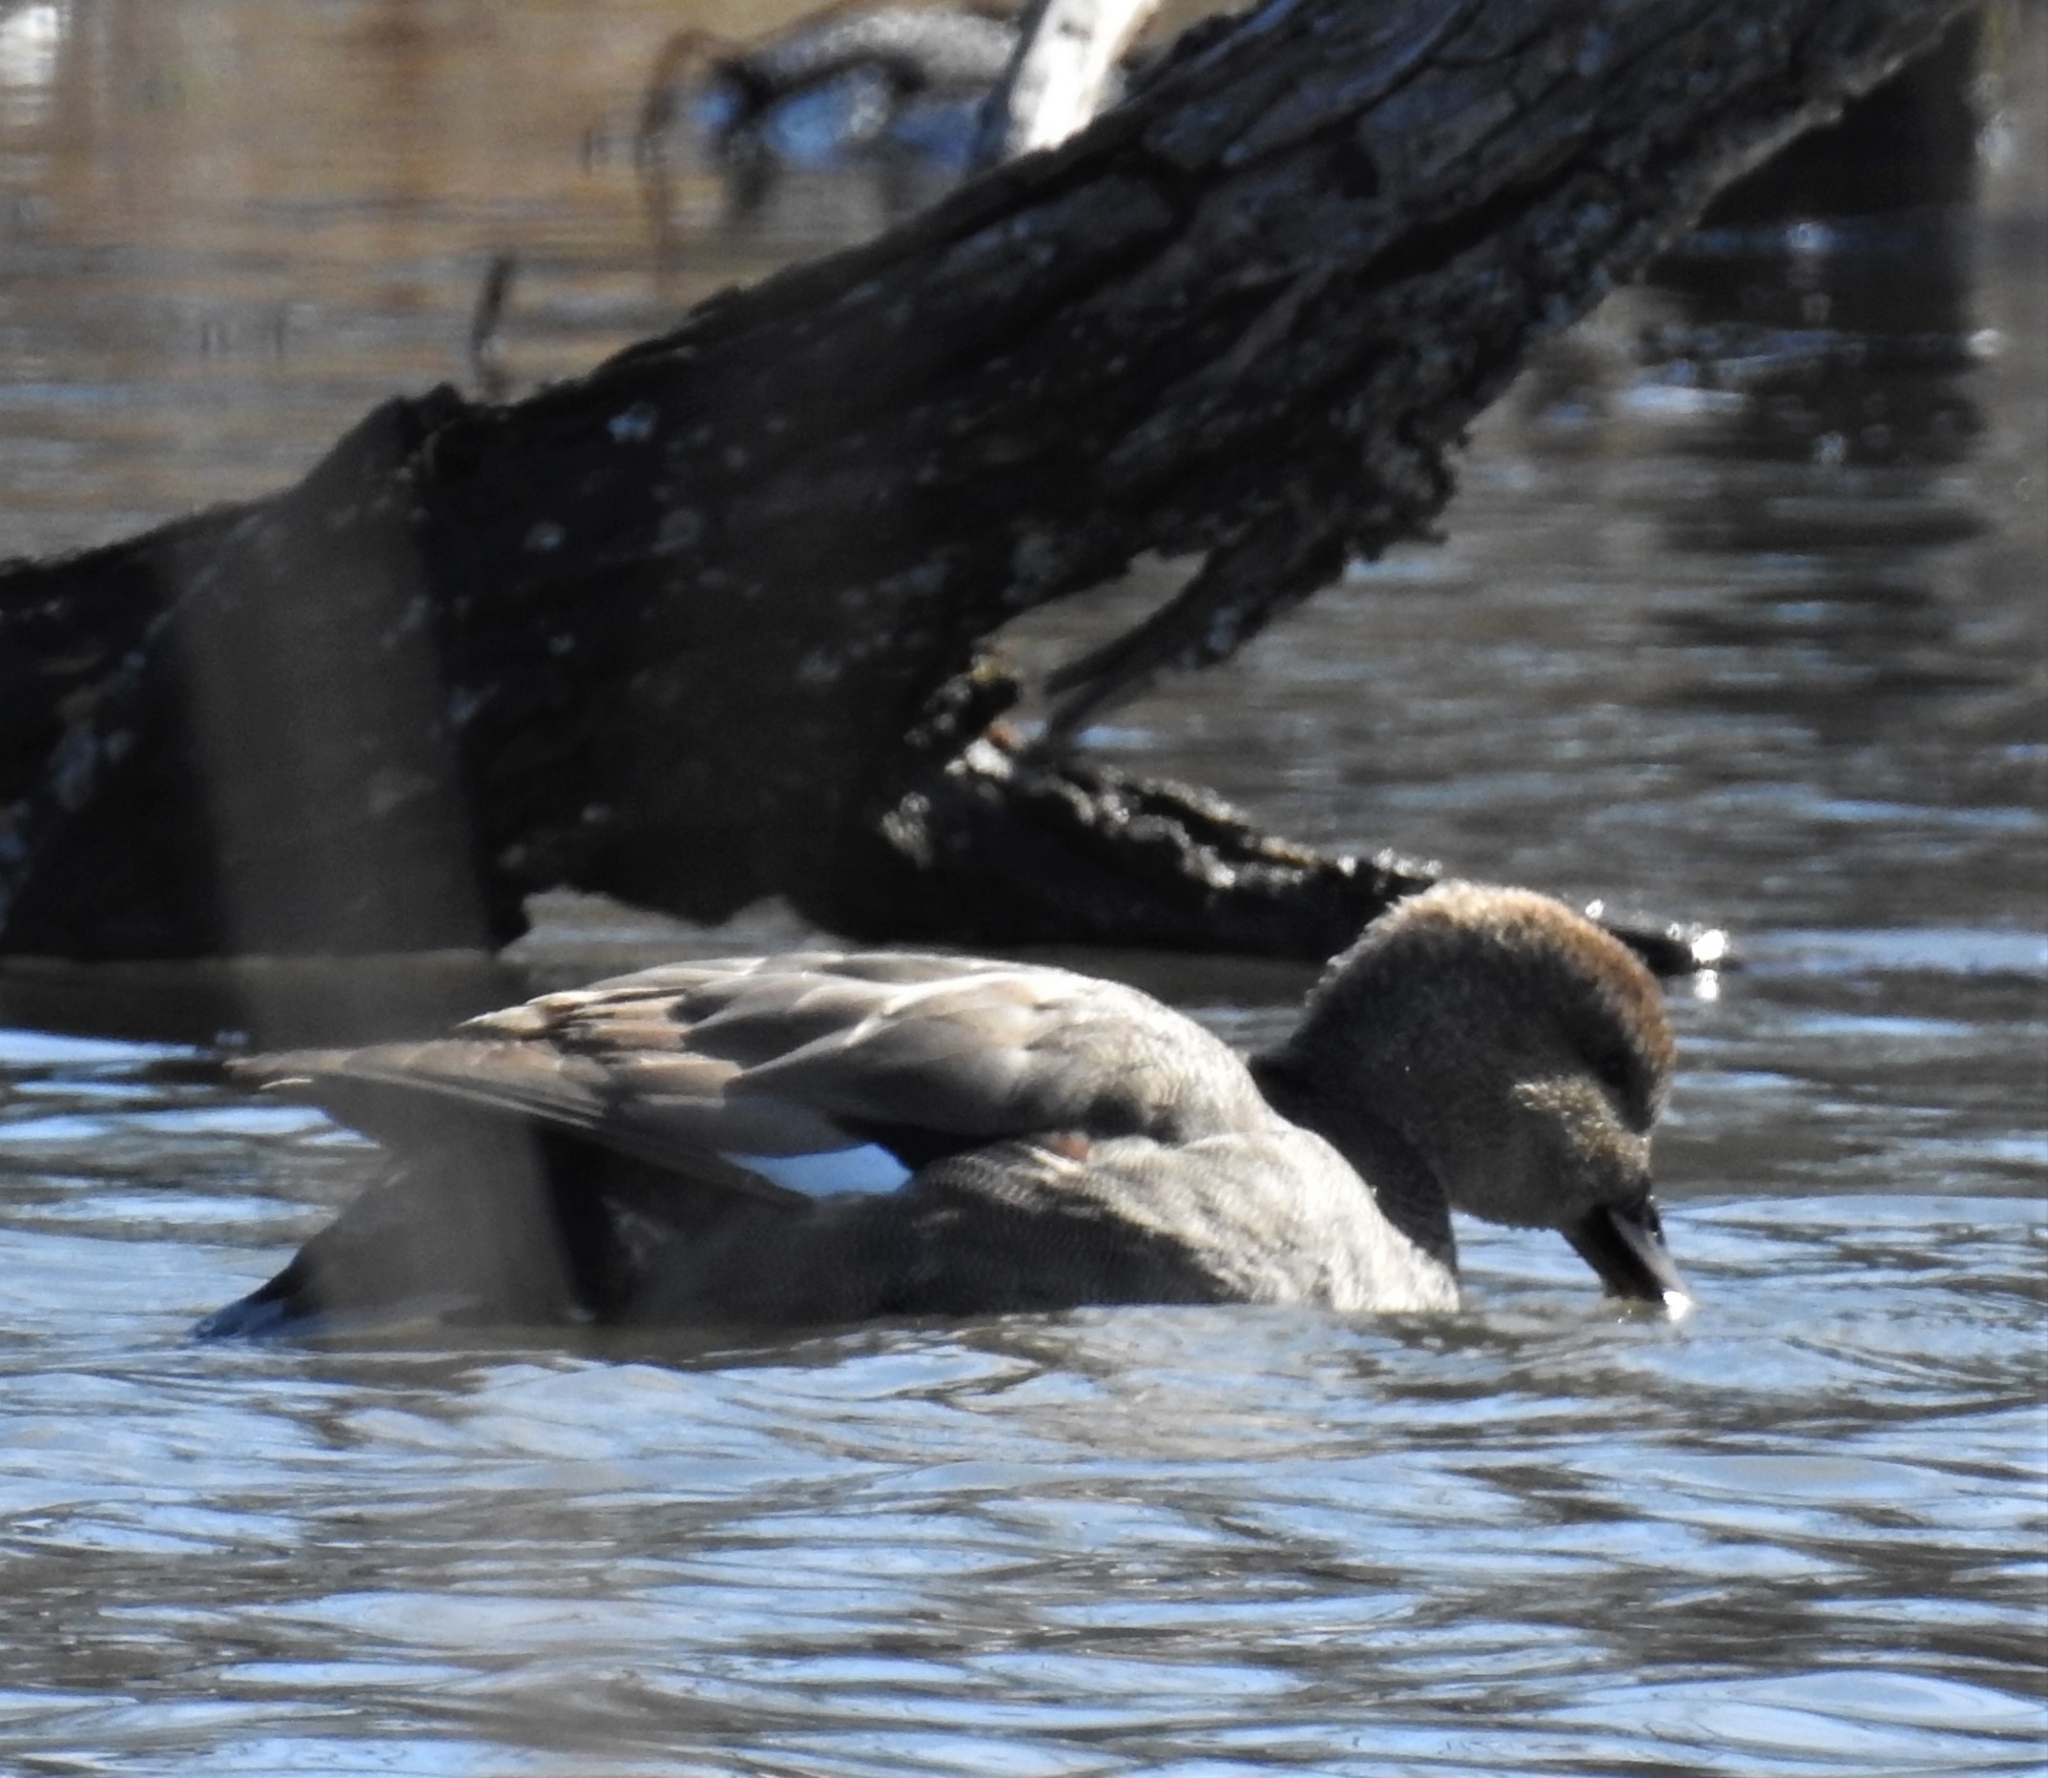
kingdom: Animalia
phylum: Chordata
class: Aves
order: Anseriformes
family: Anatidae
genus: Mareca
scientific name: Mareca strepera
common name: Gadwall
